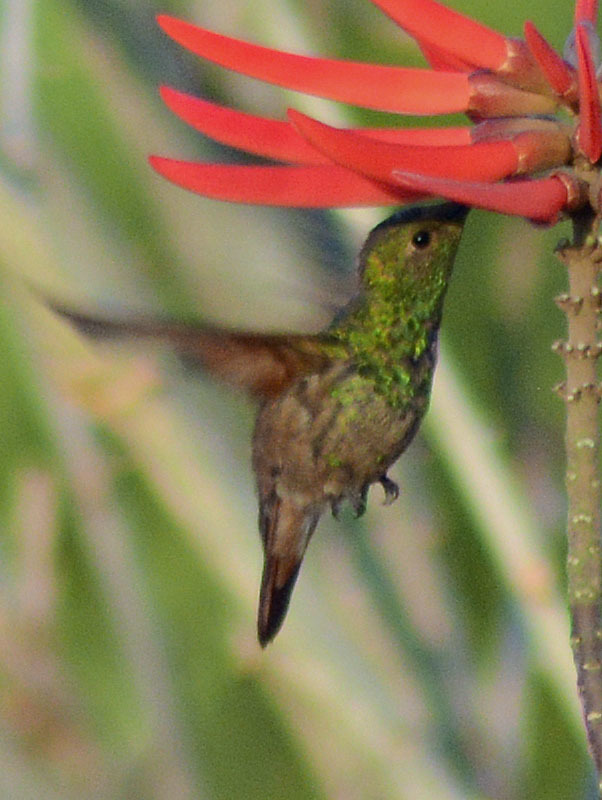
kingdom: Animalia
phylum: Chordata
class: Aves
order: Apodiformes
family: Trochilidae
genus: Saucerottia
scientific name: Saucerottia beryllina
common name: Berylline hummingbird
